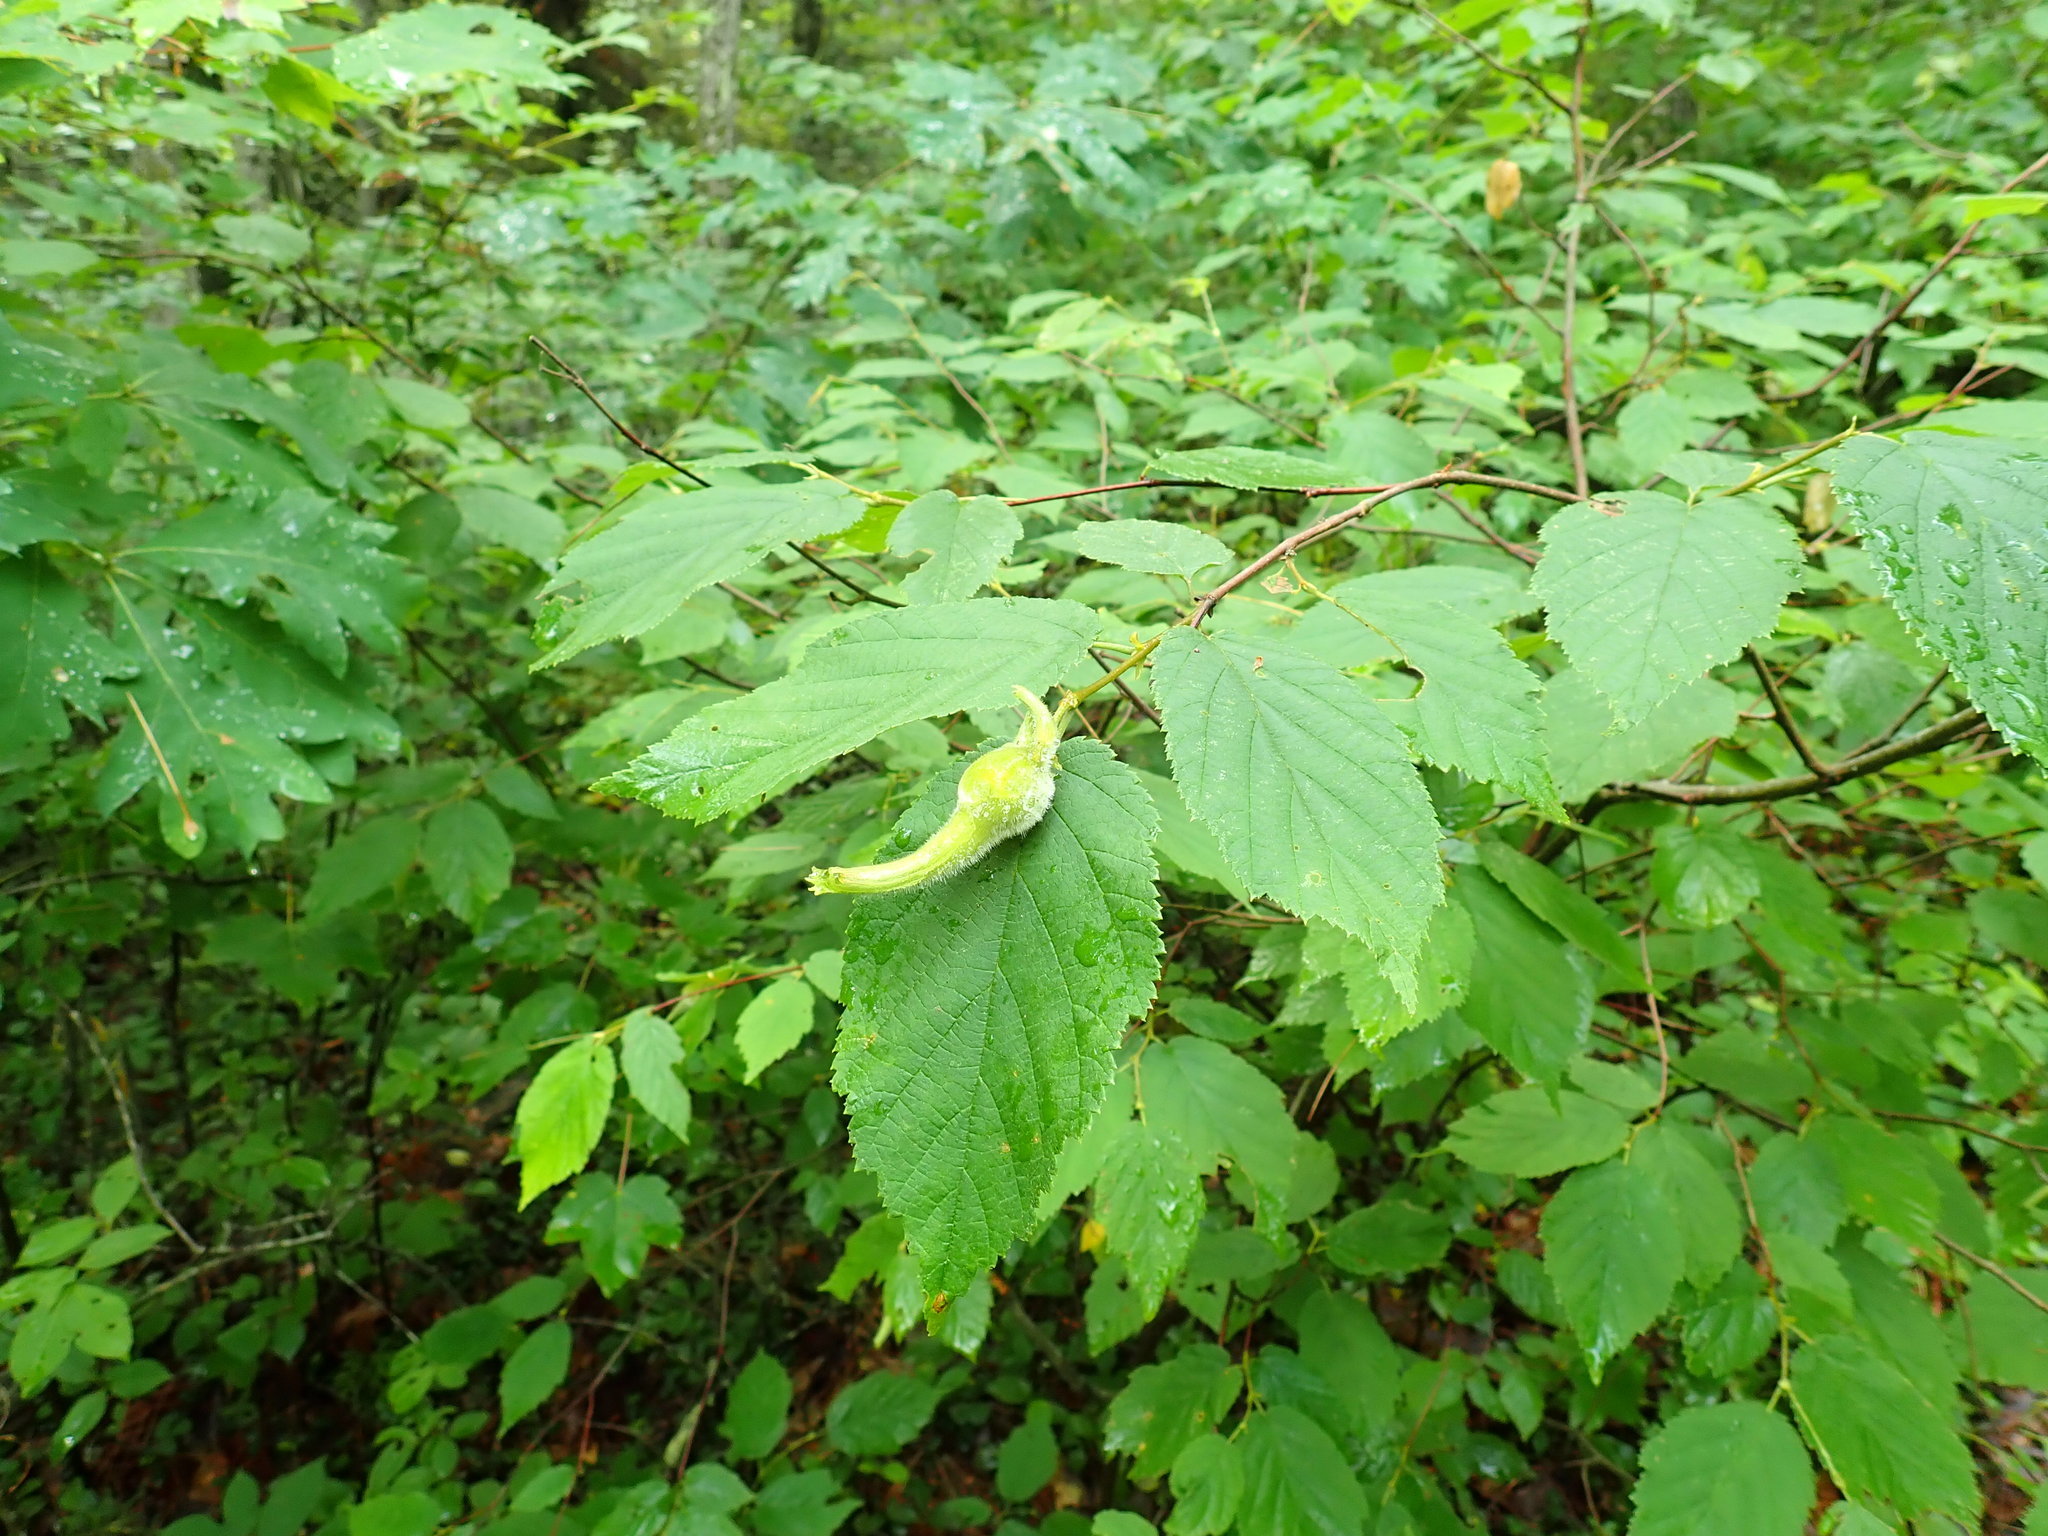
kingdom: Plantae
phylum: Tracheophyta
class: Magnoliopsida
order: Fagales
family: Betulaceae
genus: Corylus
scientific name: Corylus cornuta
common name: Beaked hazel
